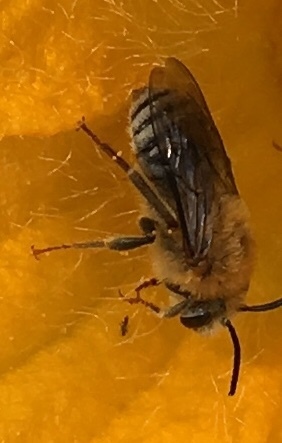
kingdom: Animalia
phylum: Arthropoda
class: Insecta
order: Hymenoptera
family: Apidae
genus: Peponapis
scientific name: Peponapis pruinosa
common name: Pruinose squash bee
